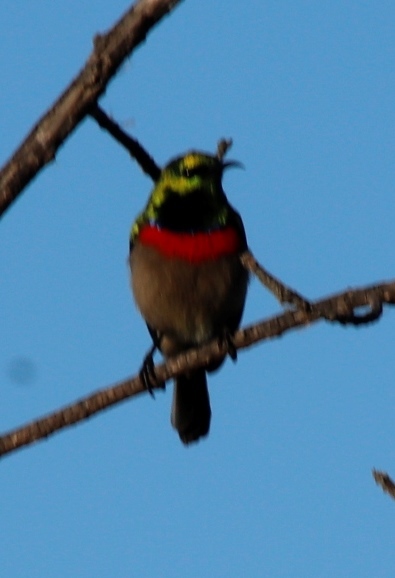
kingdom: Animalia
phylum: Chordata
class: Aves
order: Passeriformes
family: Nectariniidae
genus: Cinnyris
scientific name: Cinnyris chalybeus
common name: Southern double-collared sunbird
